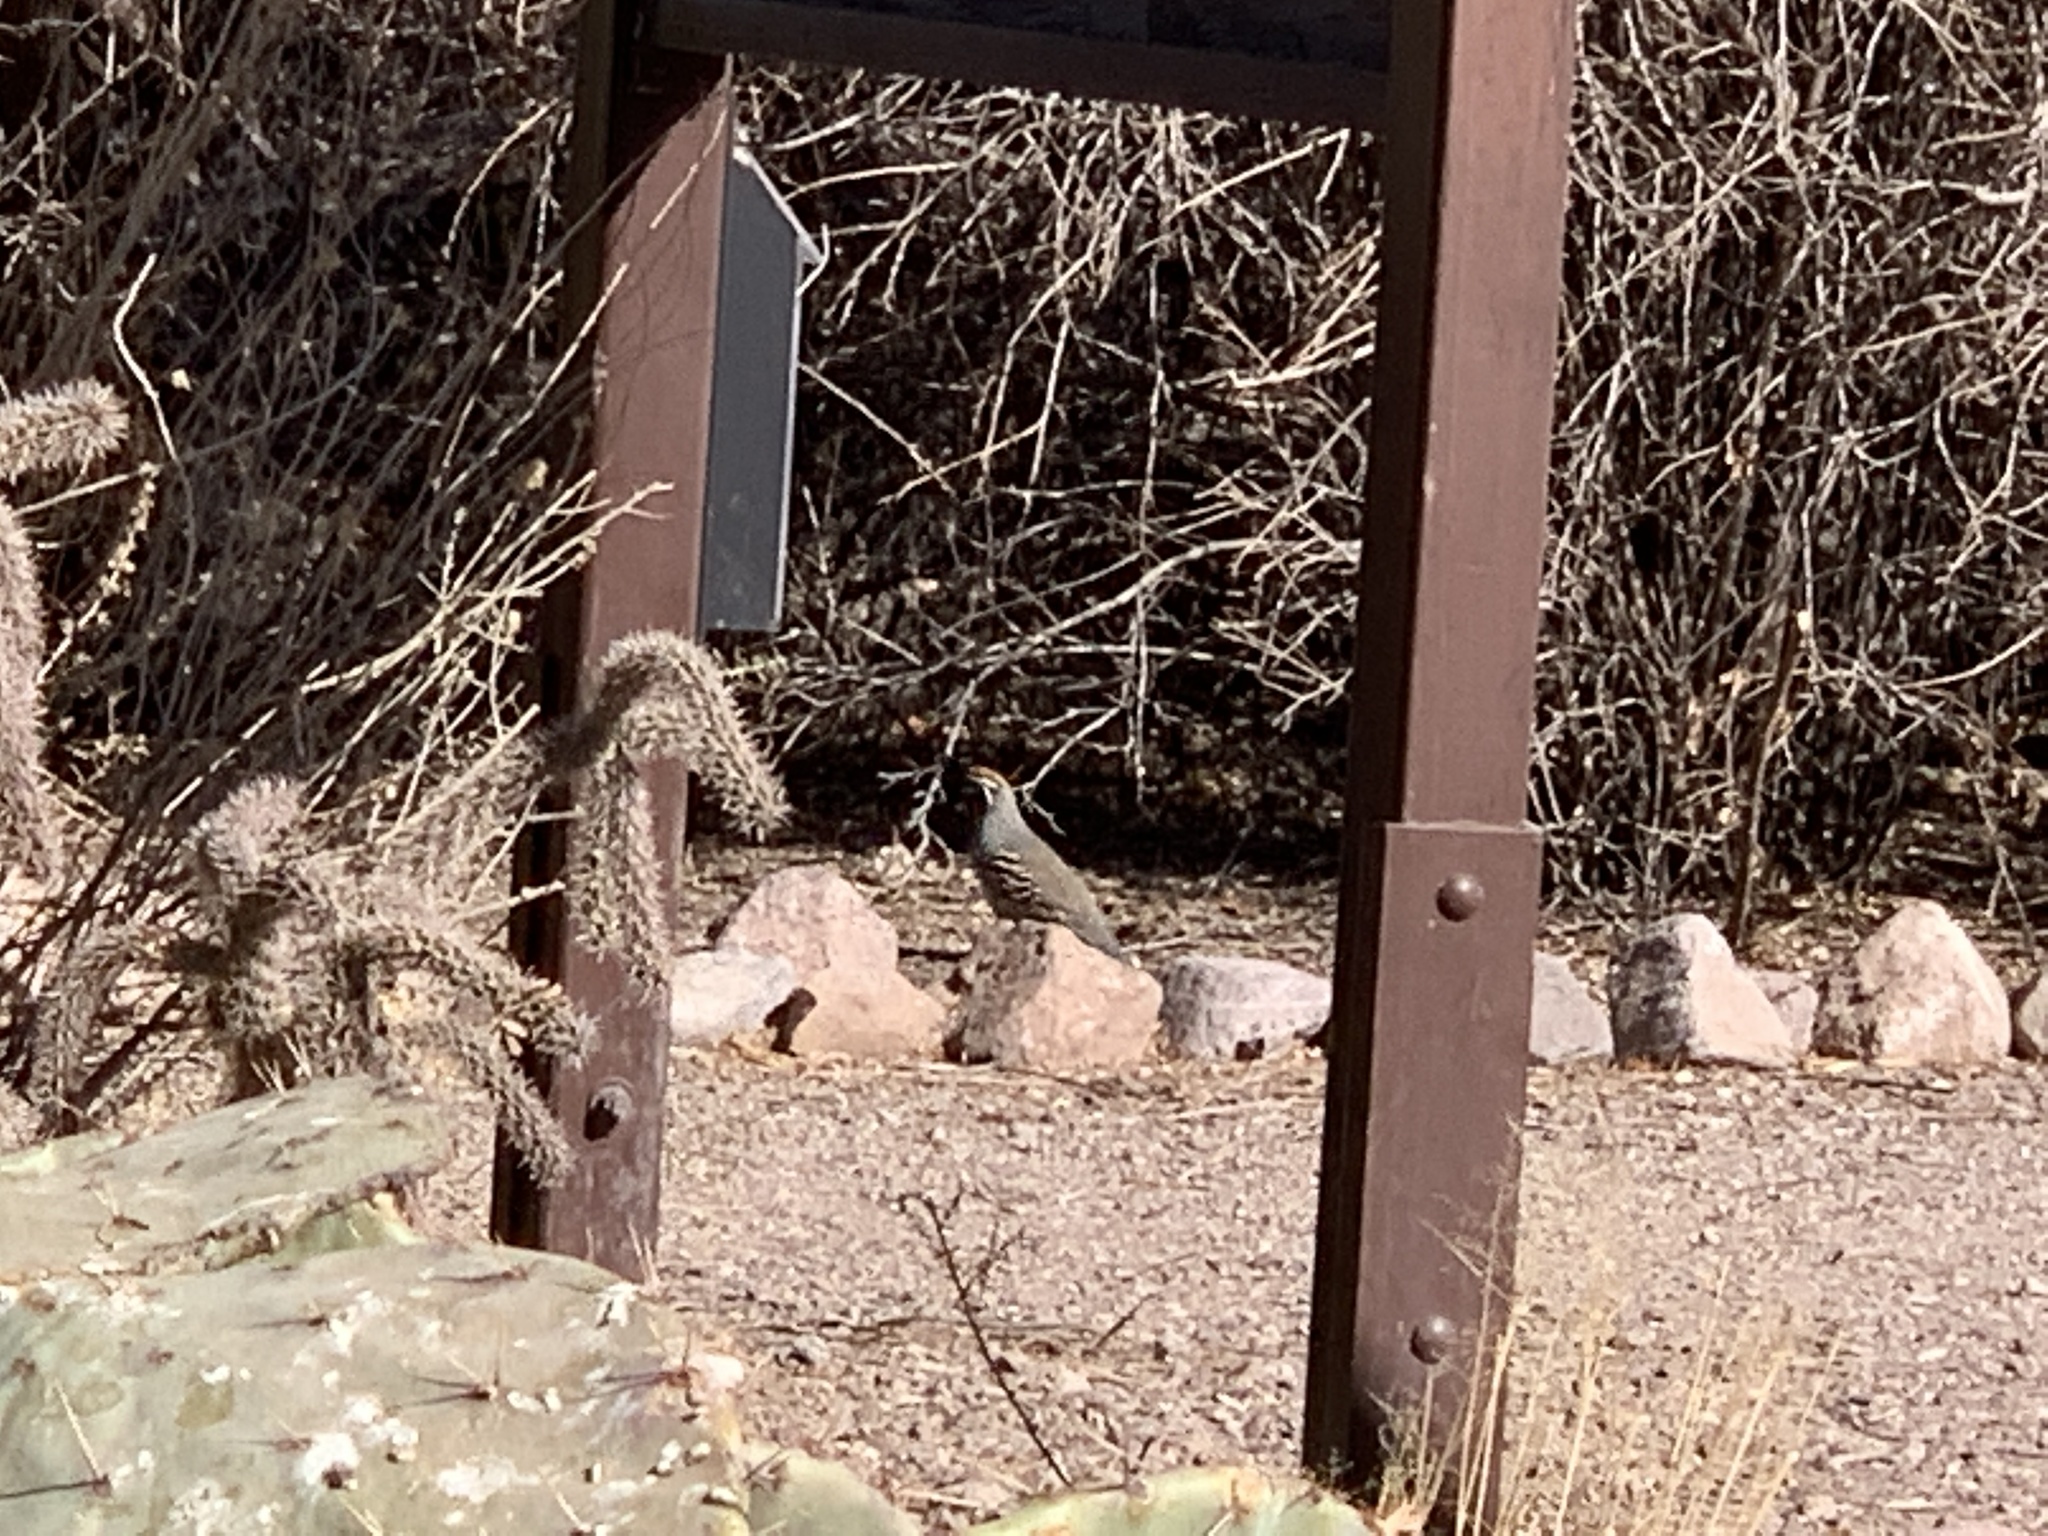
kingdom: Animalia
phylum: Chordata
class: Aves
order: Galliformes
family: Odontophoridae
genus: Callipepla
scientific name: Callipepla gambelii
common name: Gambel's quail
